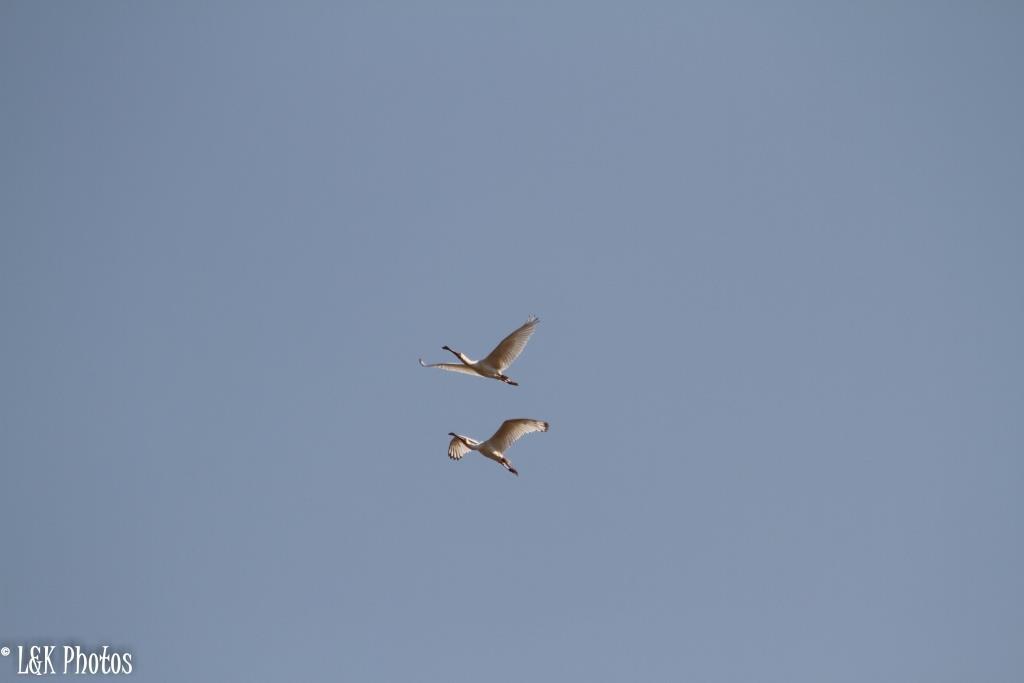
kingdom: Animalia
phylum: Chordata
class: Aves
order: Pelecaniformes
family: Threskiornithidae
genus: Platalea
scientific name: Platalea alba
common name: African spoonbill
